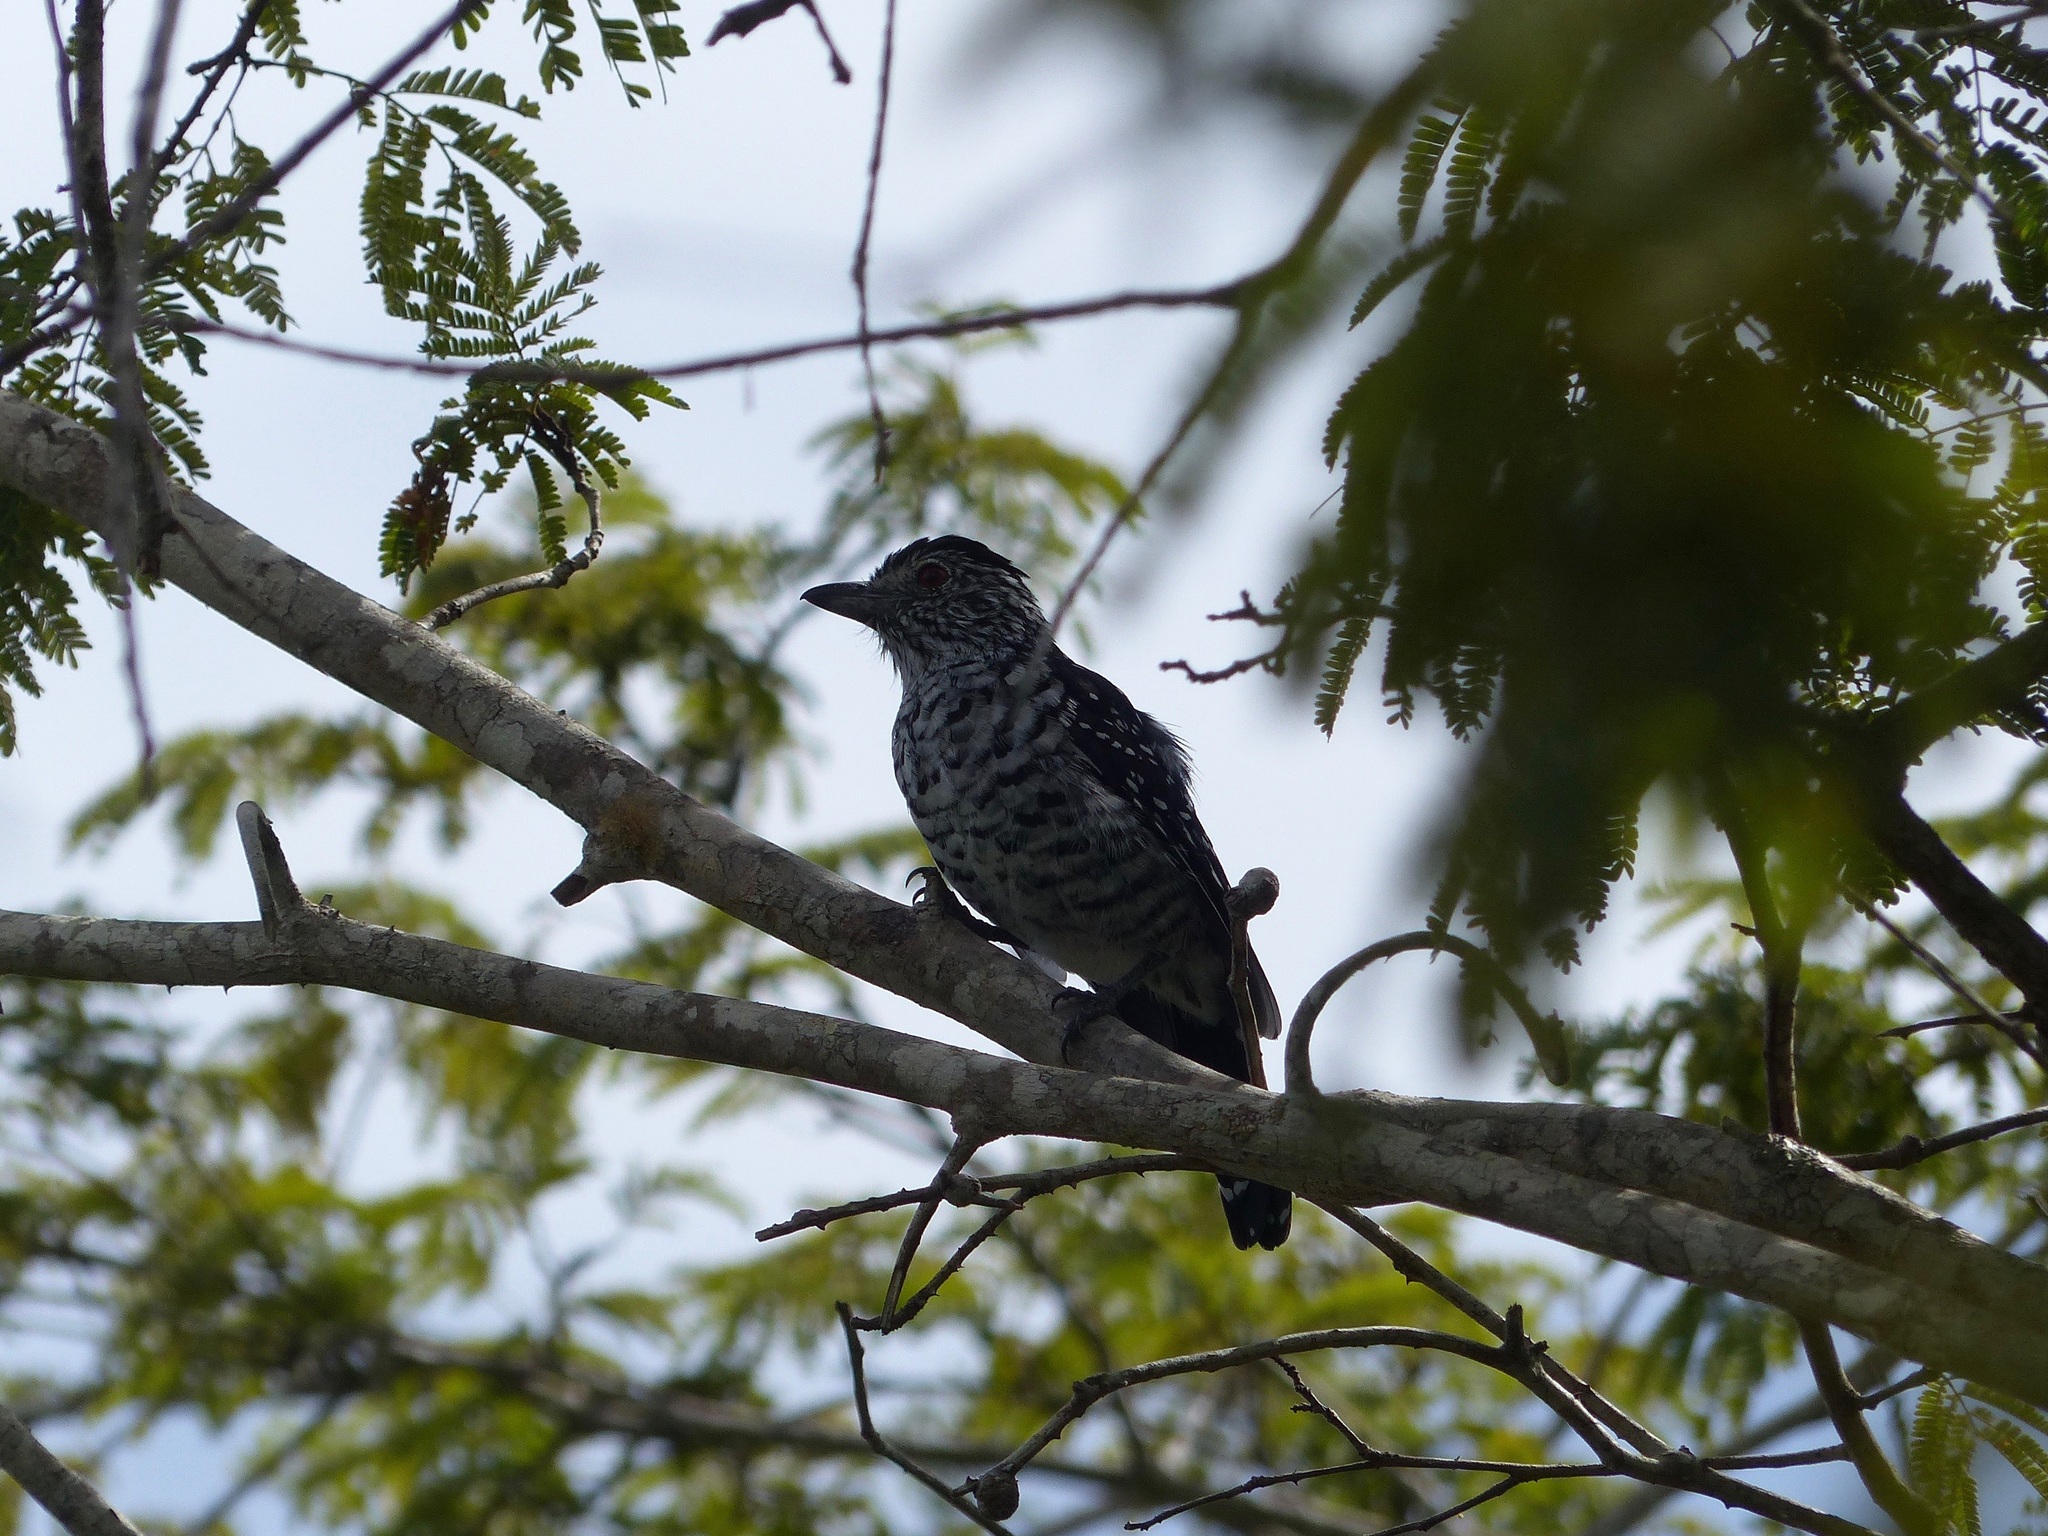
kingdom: Animalia
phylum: Chordata
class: Aves
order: Passeriformes
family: Thamnophilidae
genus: Thamnophilus
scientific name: Thamnophilus doliatus
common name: Barred antshrike
